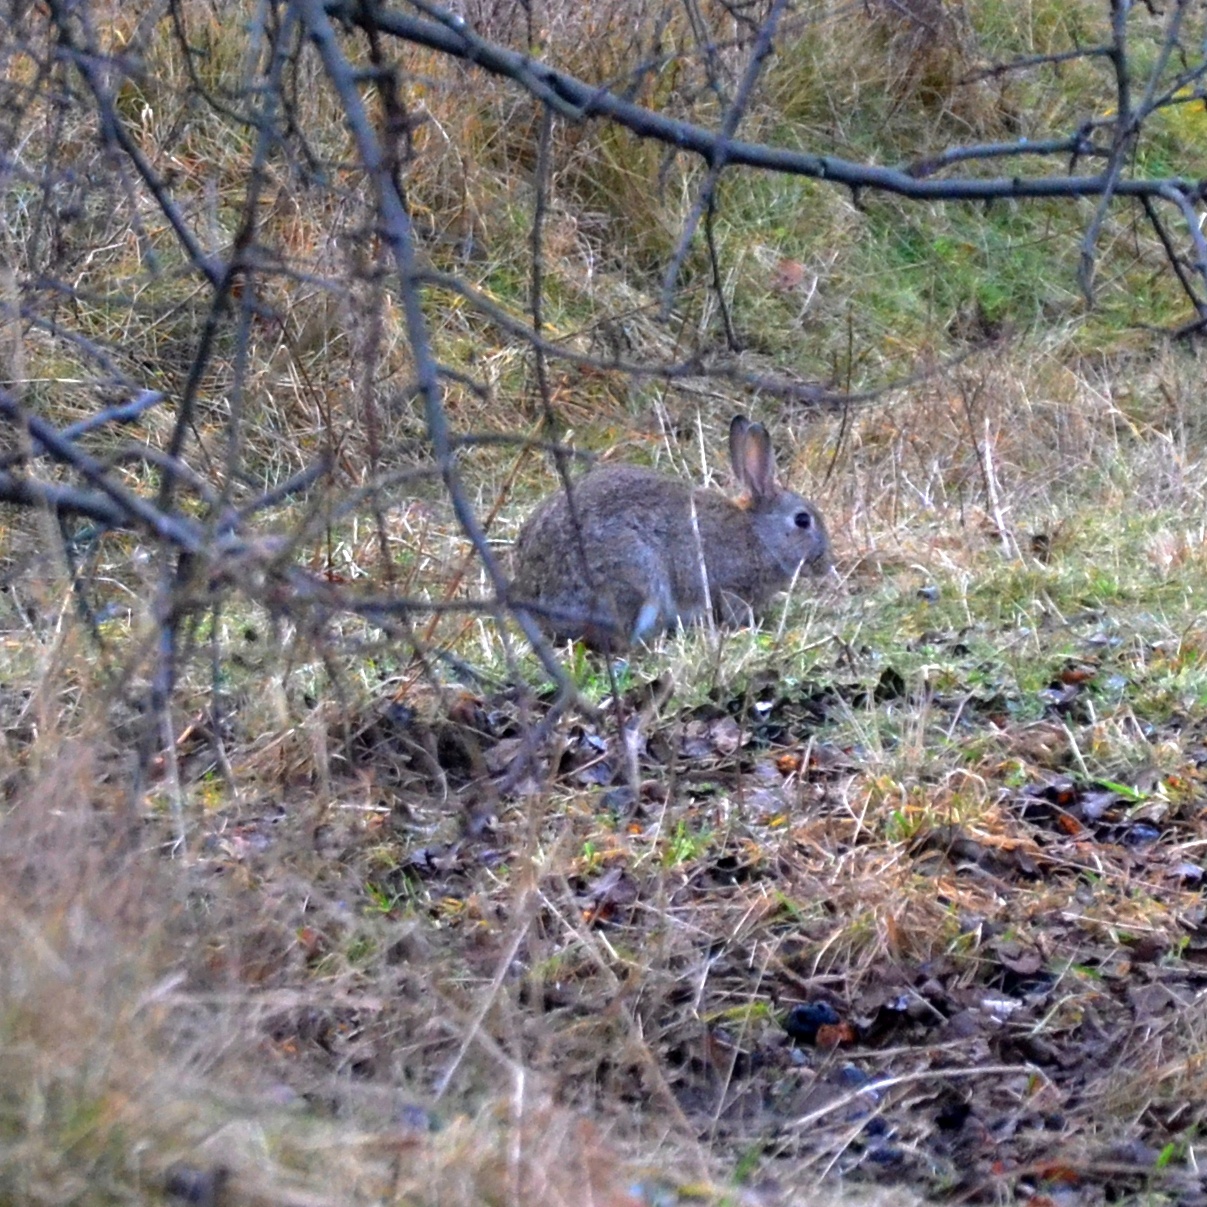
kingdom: Animalia
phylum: Chordata
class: Mammalia
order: Lagomorpha
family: Leporidae
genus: Oryctolagus
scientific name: Oryctolagus cuniculus
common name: European rabbit
